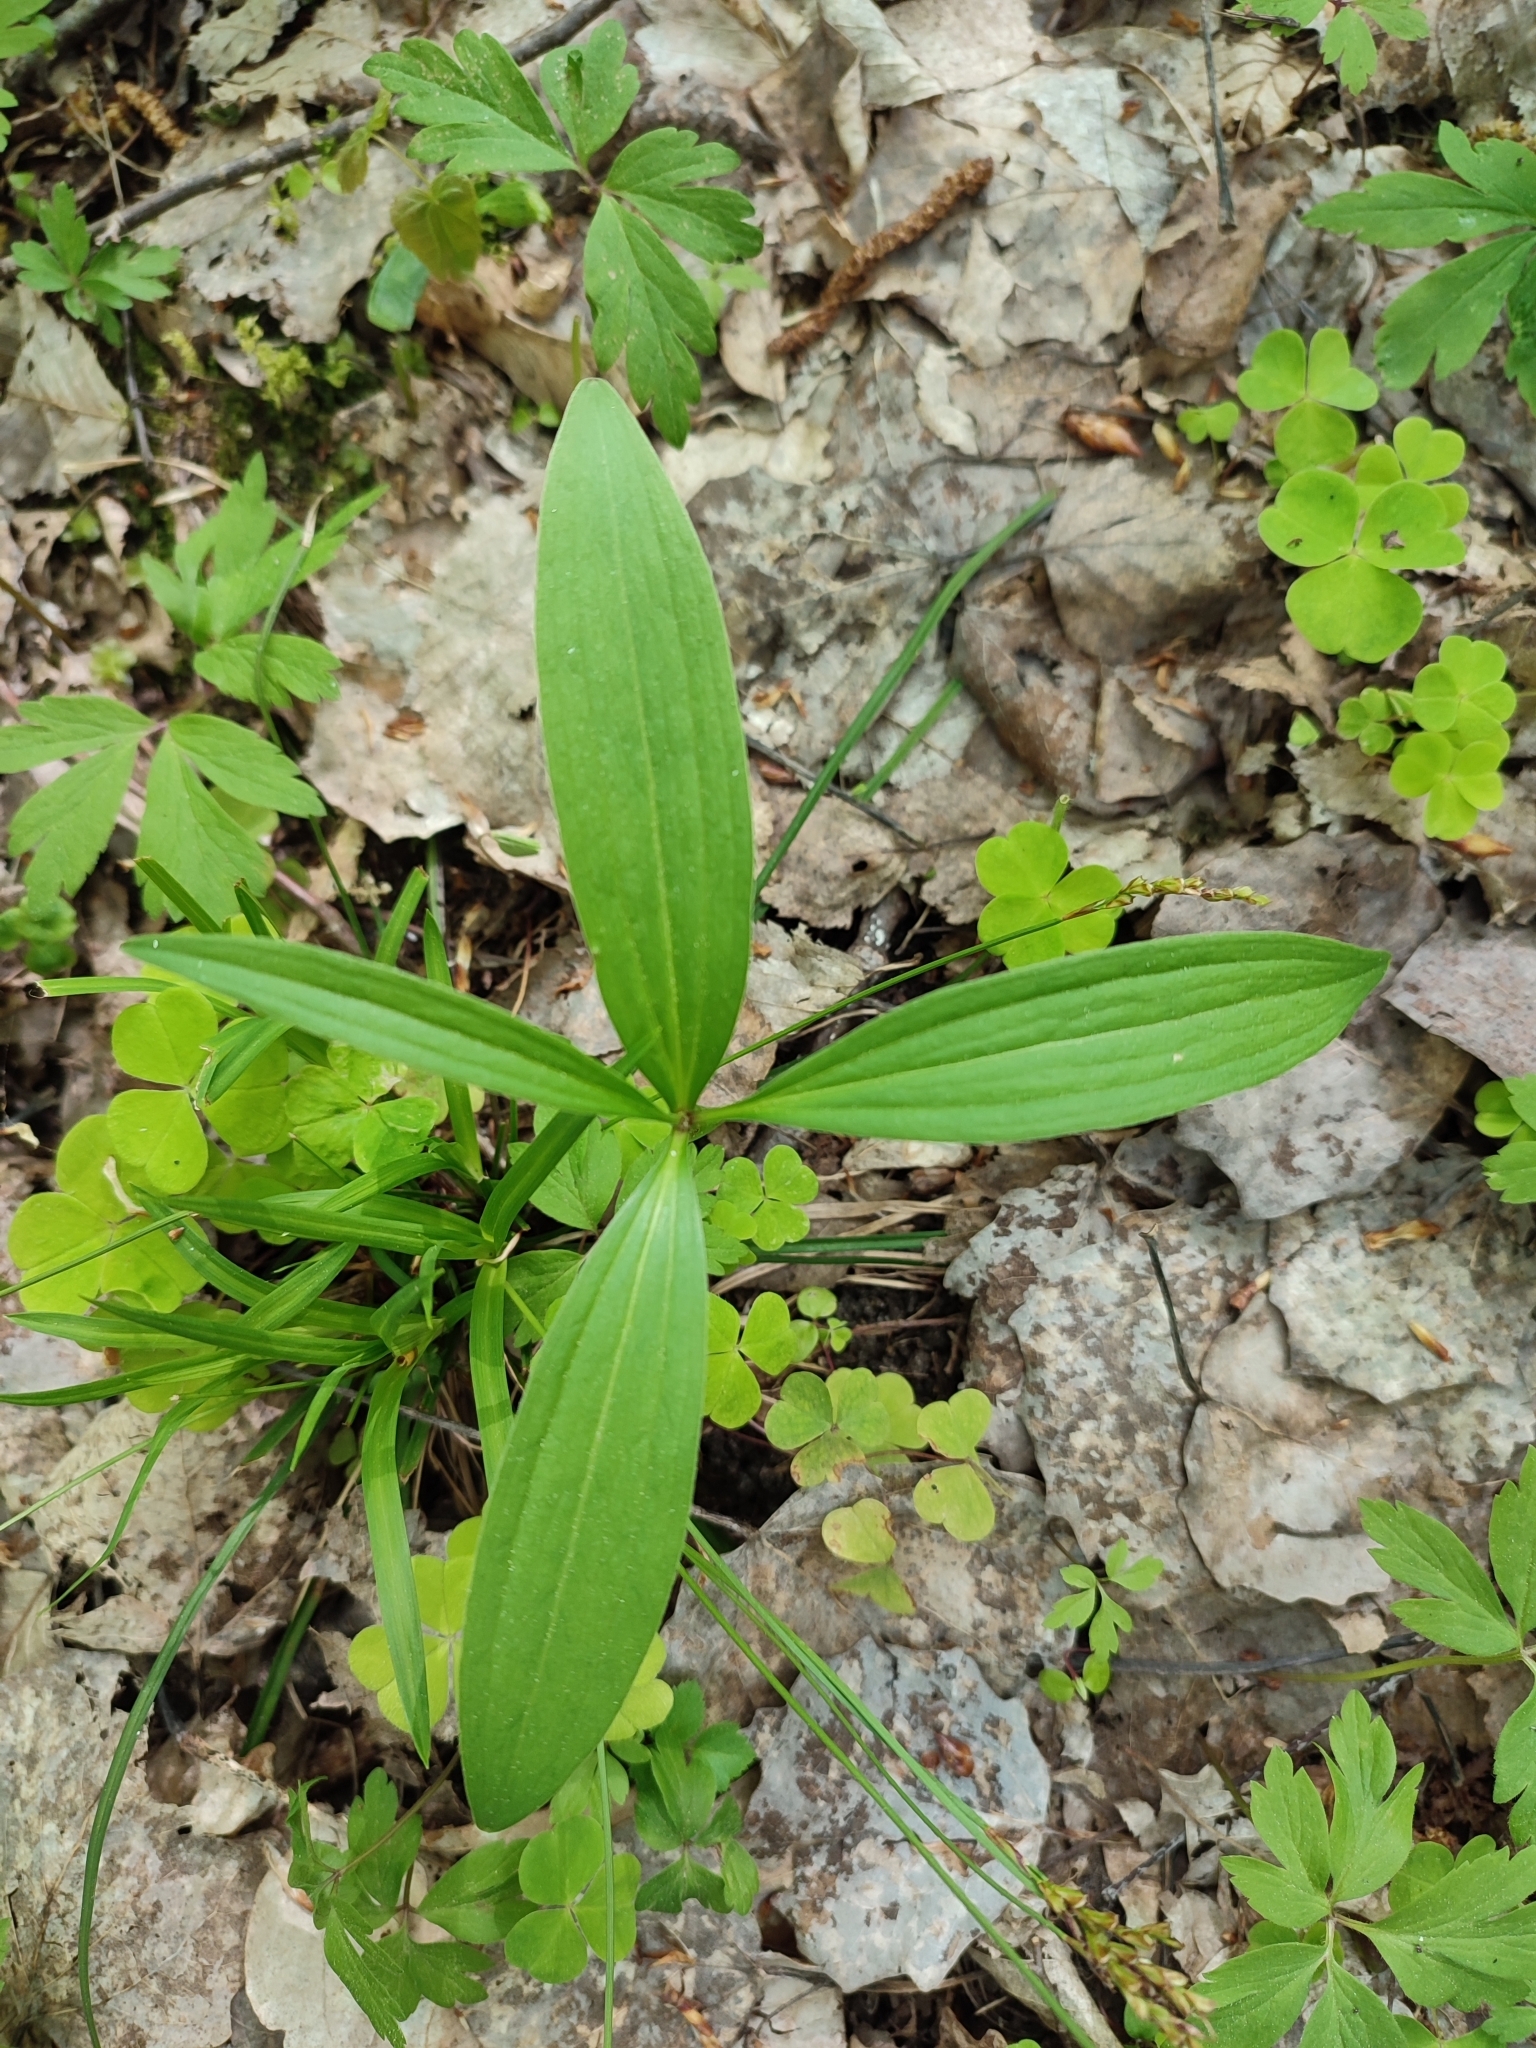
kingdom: Plantae
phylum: Tracheophyta
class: Liliopsida
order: Liliales
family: Liliaceae
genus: Lilium
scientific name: Lilium martagon
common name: Martagon lily
